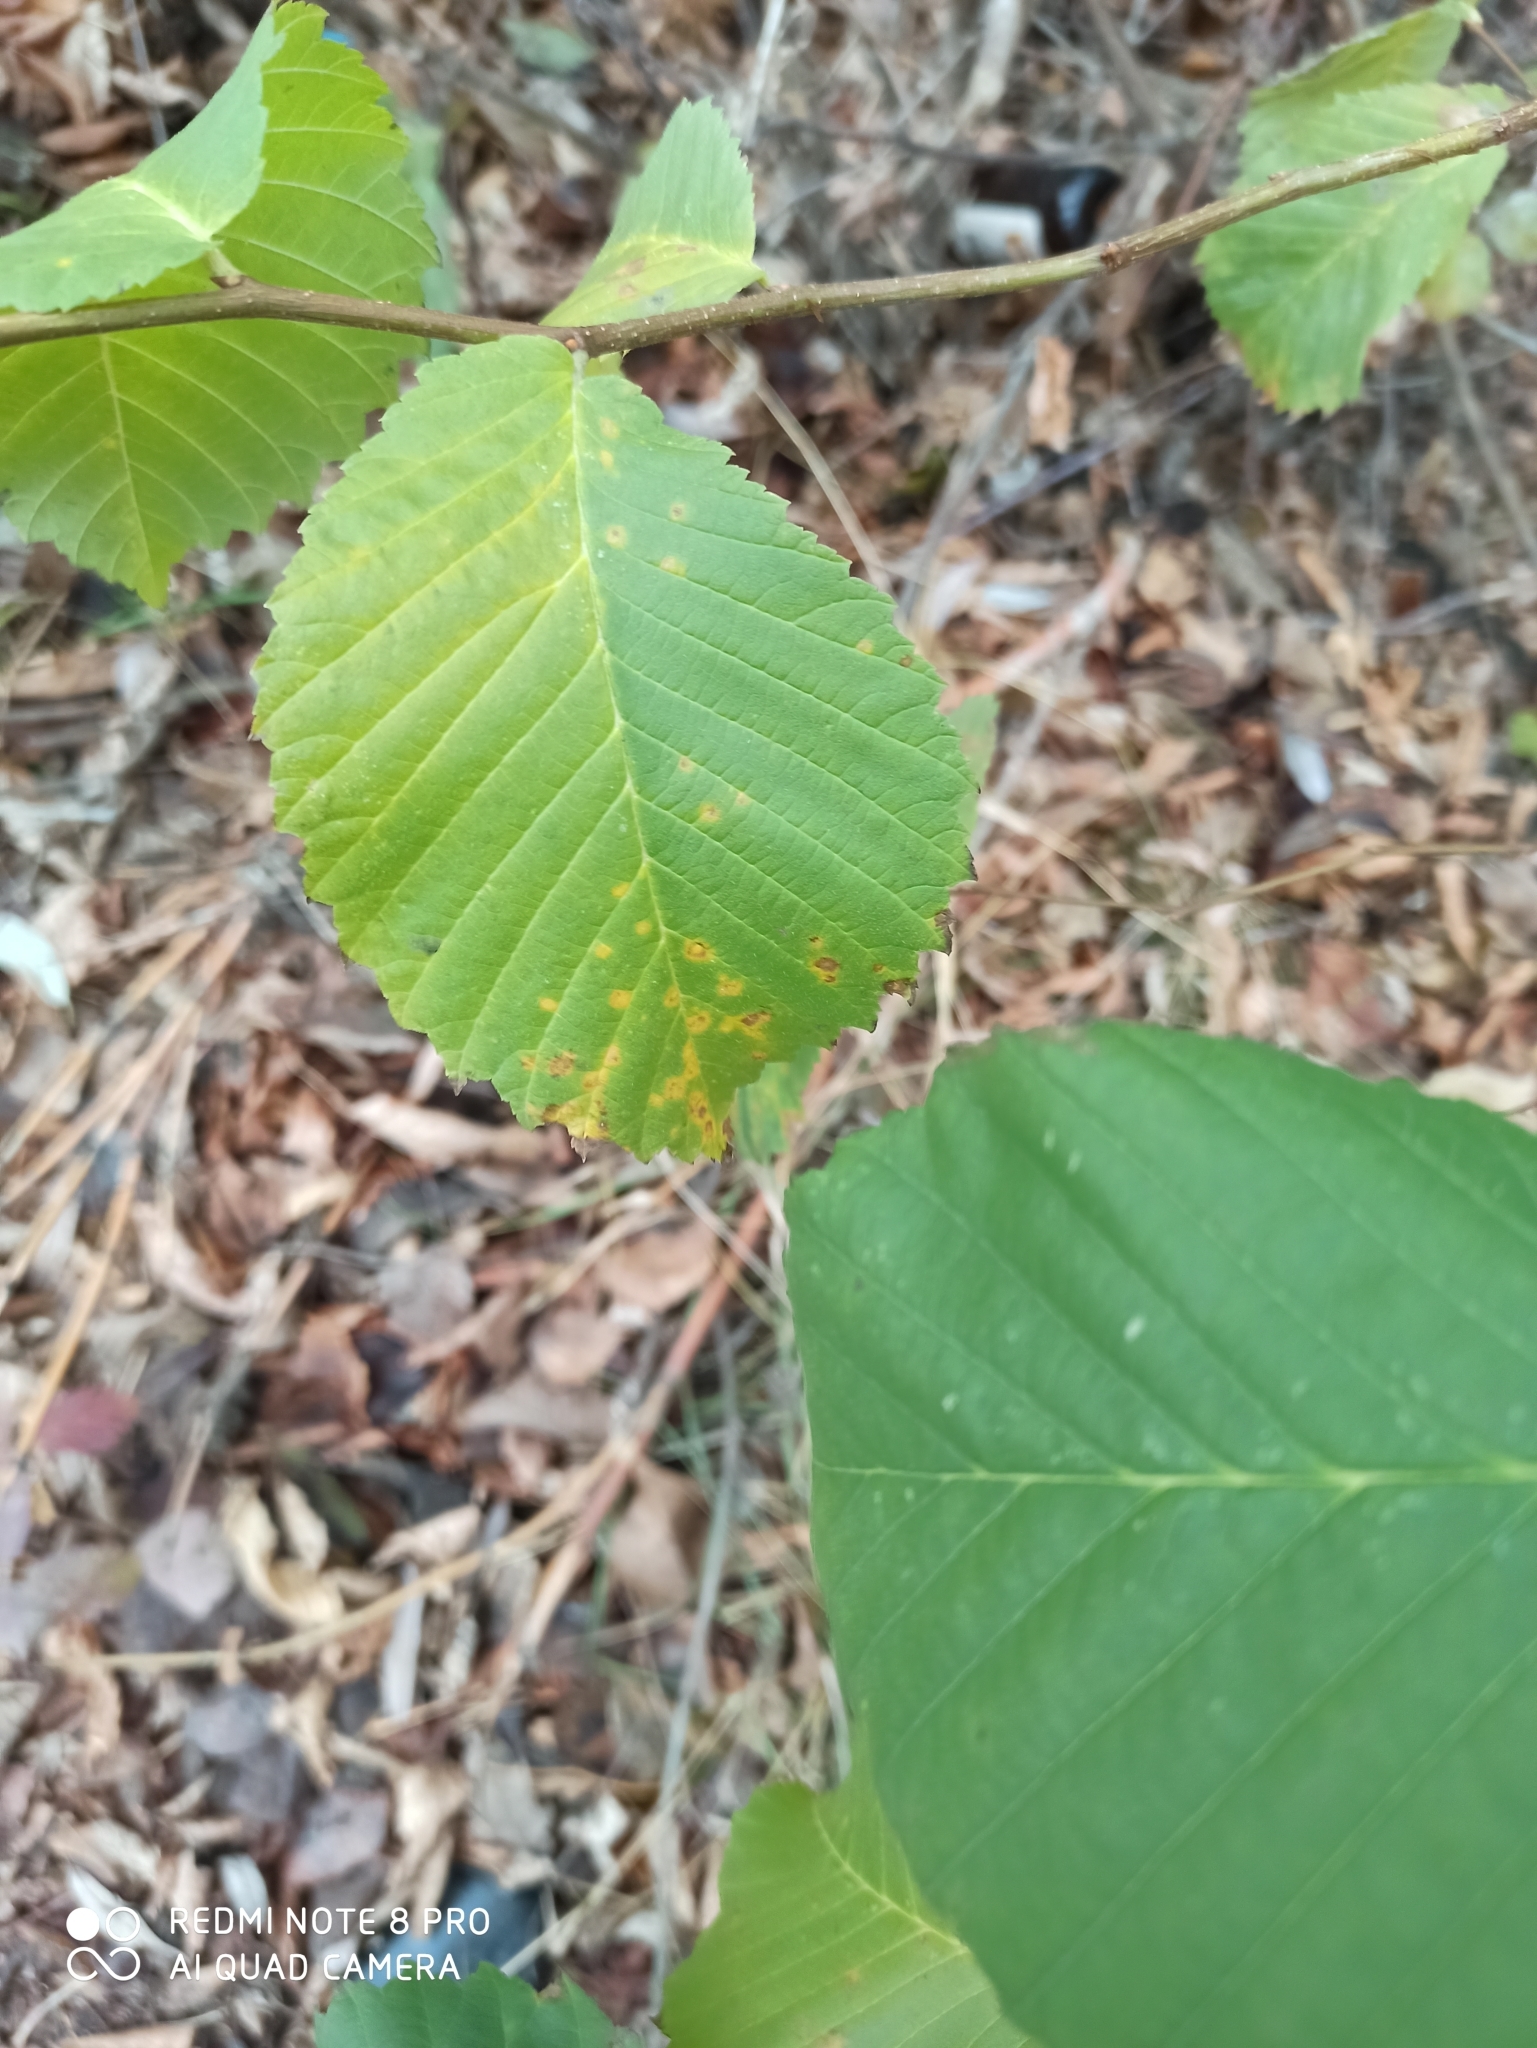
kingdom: Plantae
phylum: Tracheophyta
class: Magnoliopsida
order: Rosales
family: Ulmaceae
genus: Ulmus
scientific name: Ulmus glabra
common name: Wych elm
